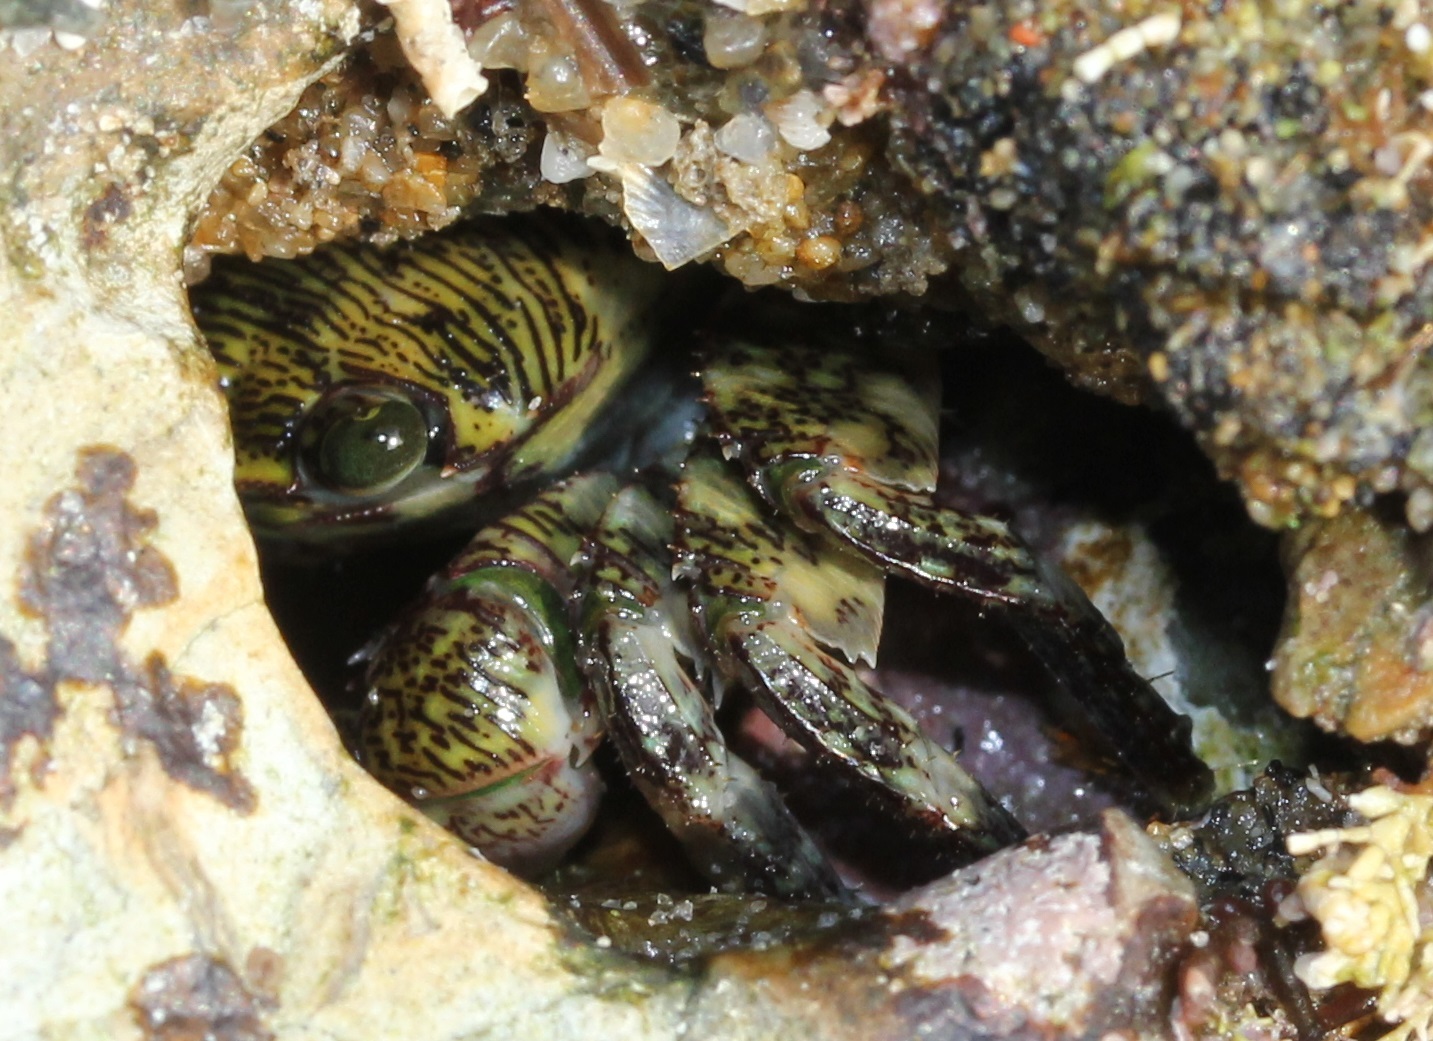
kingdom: Animalia
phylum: Arthropoda
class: Malacostraca
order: Decapoda
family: Grapsidae
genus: Pachygrapsus
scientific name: Pachygrapsus crassipes
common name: Striped shore crab
